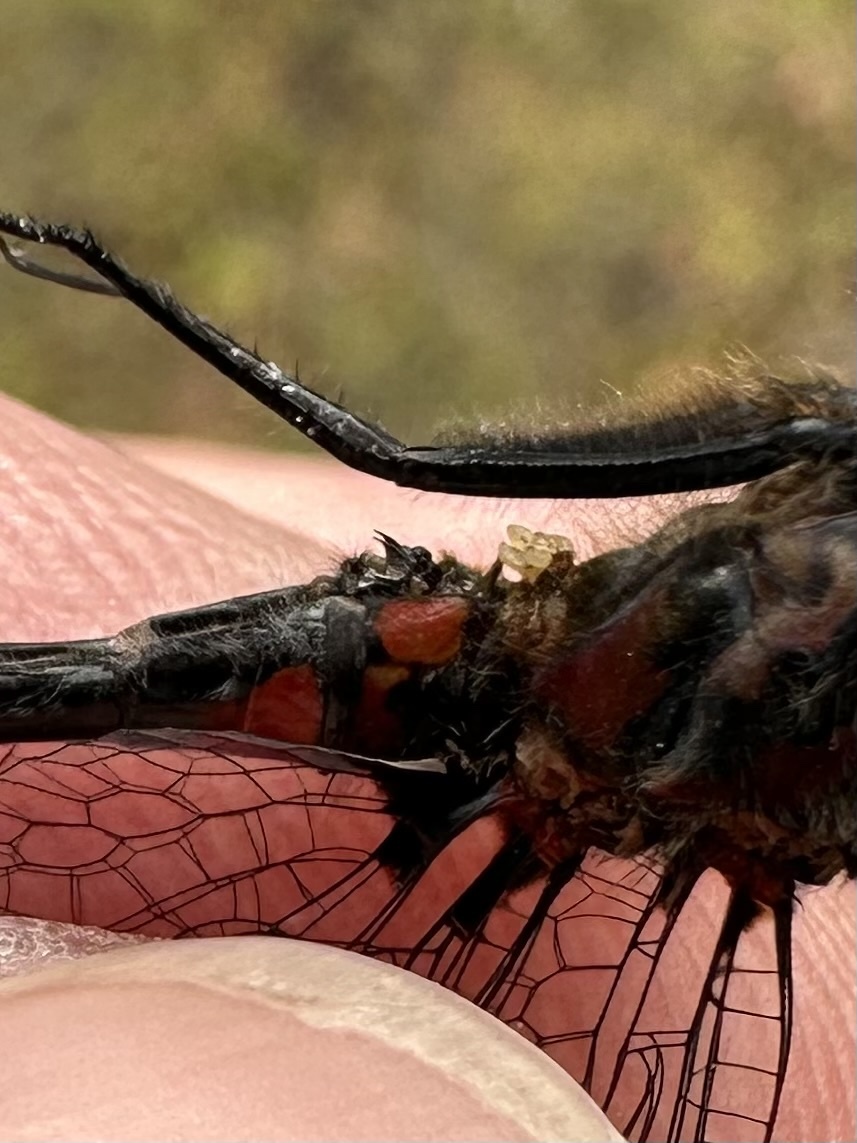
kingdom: Animalia
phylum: Arthropoda
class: Insecta
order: Odonata
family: Libellulidae
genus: Leucorrhinia
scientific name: Leucorrhinia hudsonica
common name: Hudsonian whiteface
